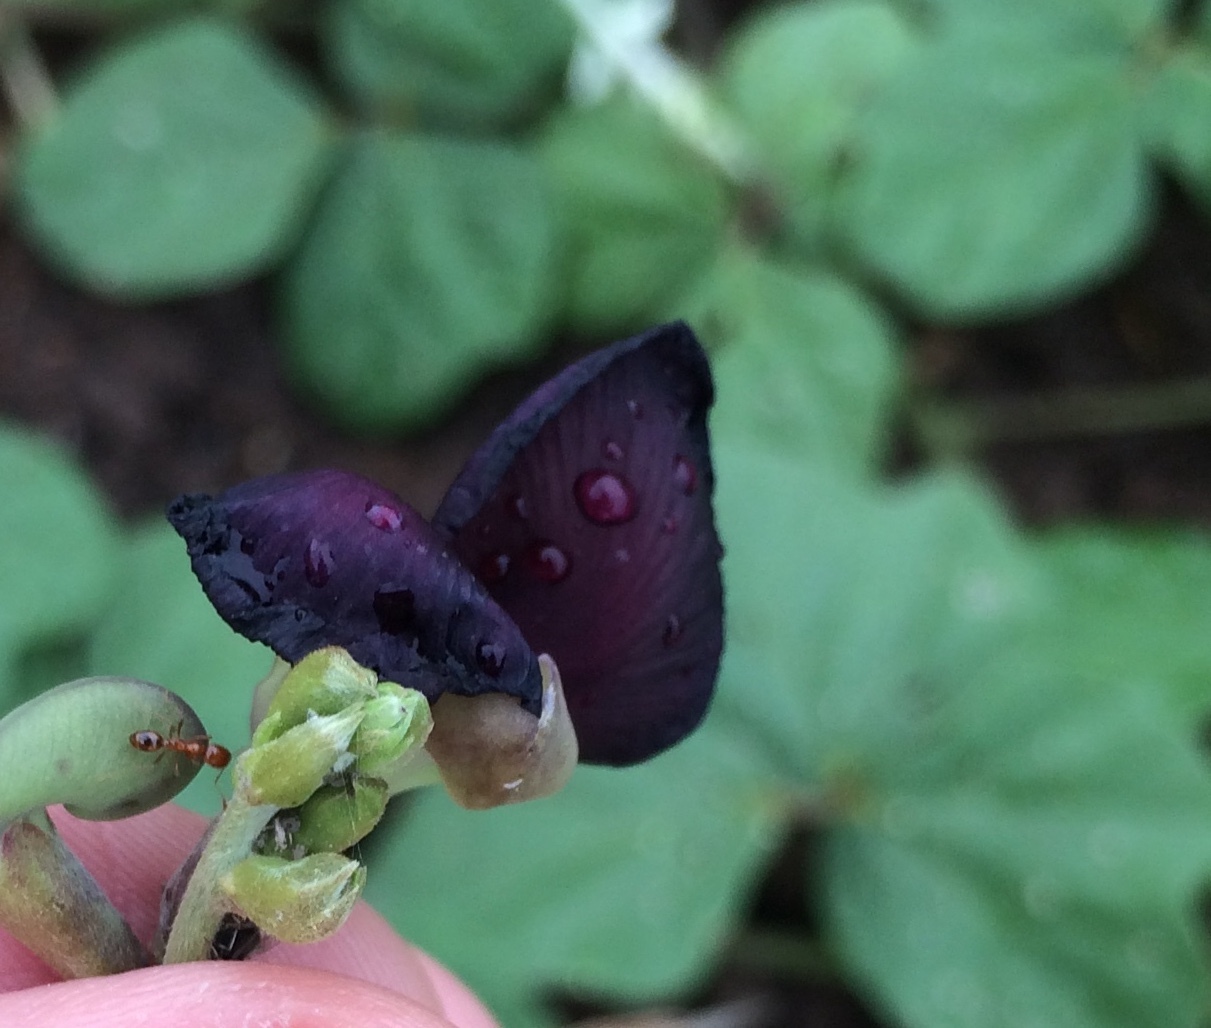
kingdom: Animalia
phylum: Arthropoda
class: Insecta
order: Hymenoptera
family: Formicidae
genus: Solenopsis
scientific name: Solenopsis geminata
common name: Tropical fire ant
